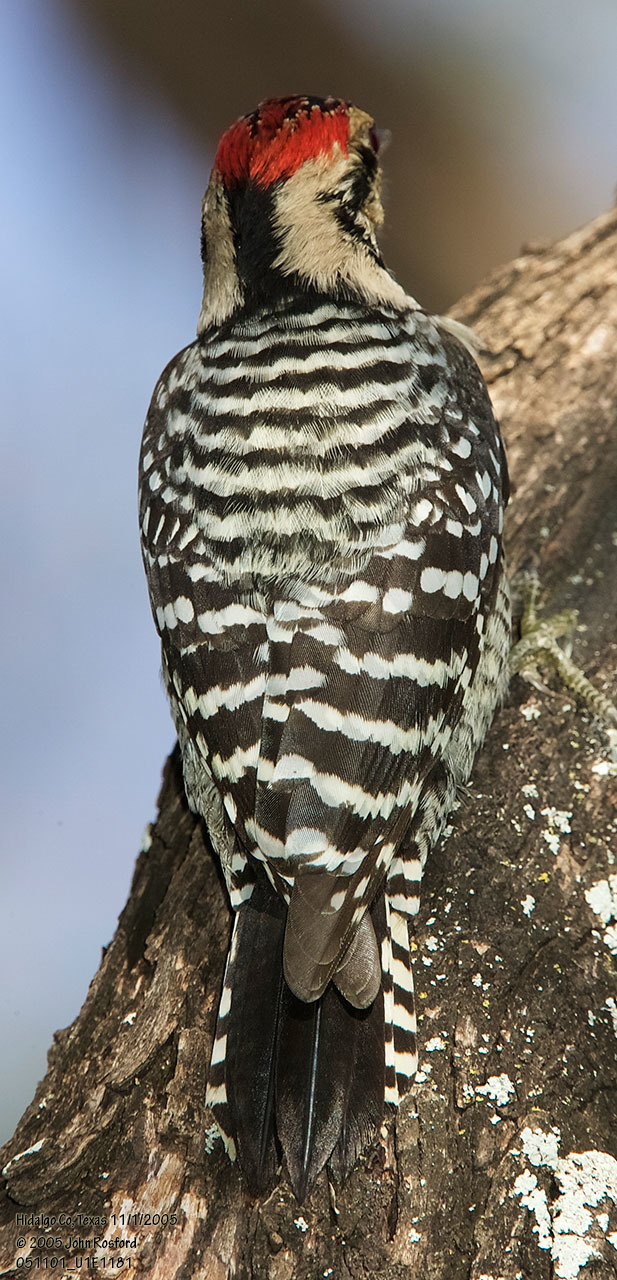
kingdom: Animalia
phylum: Chordata
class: Aves
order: Piciformes
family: Picidae
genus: Dryobates
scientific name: Dryobates scalaris
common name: Ladder-backed woodpecker
